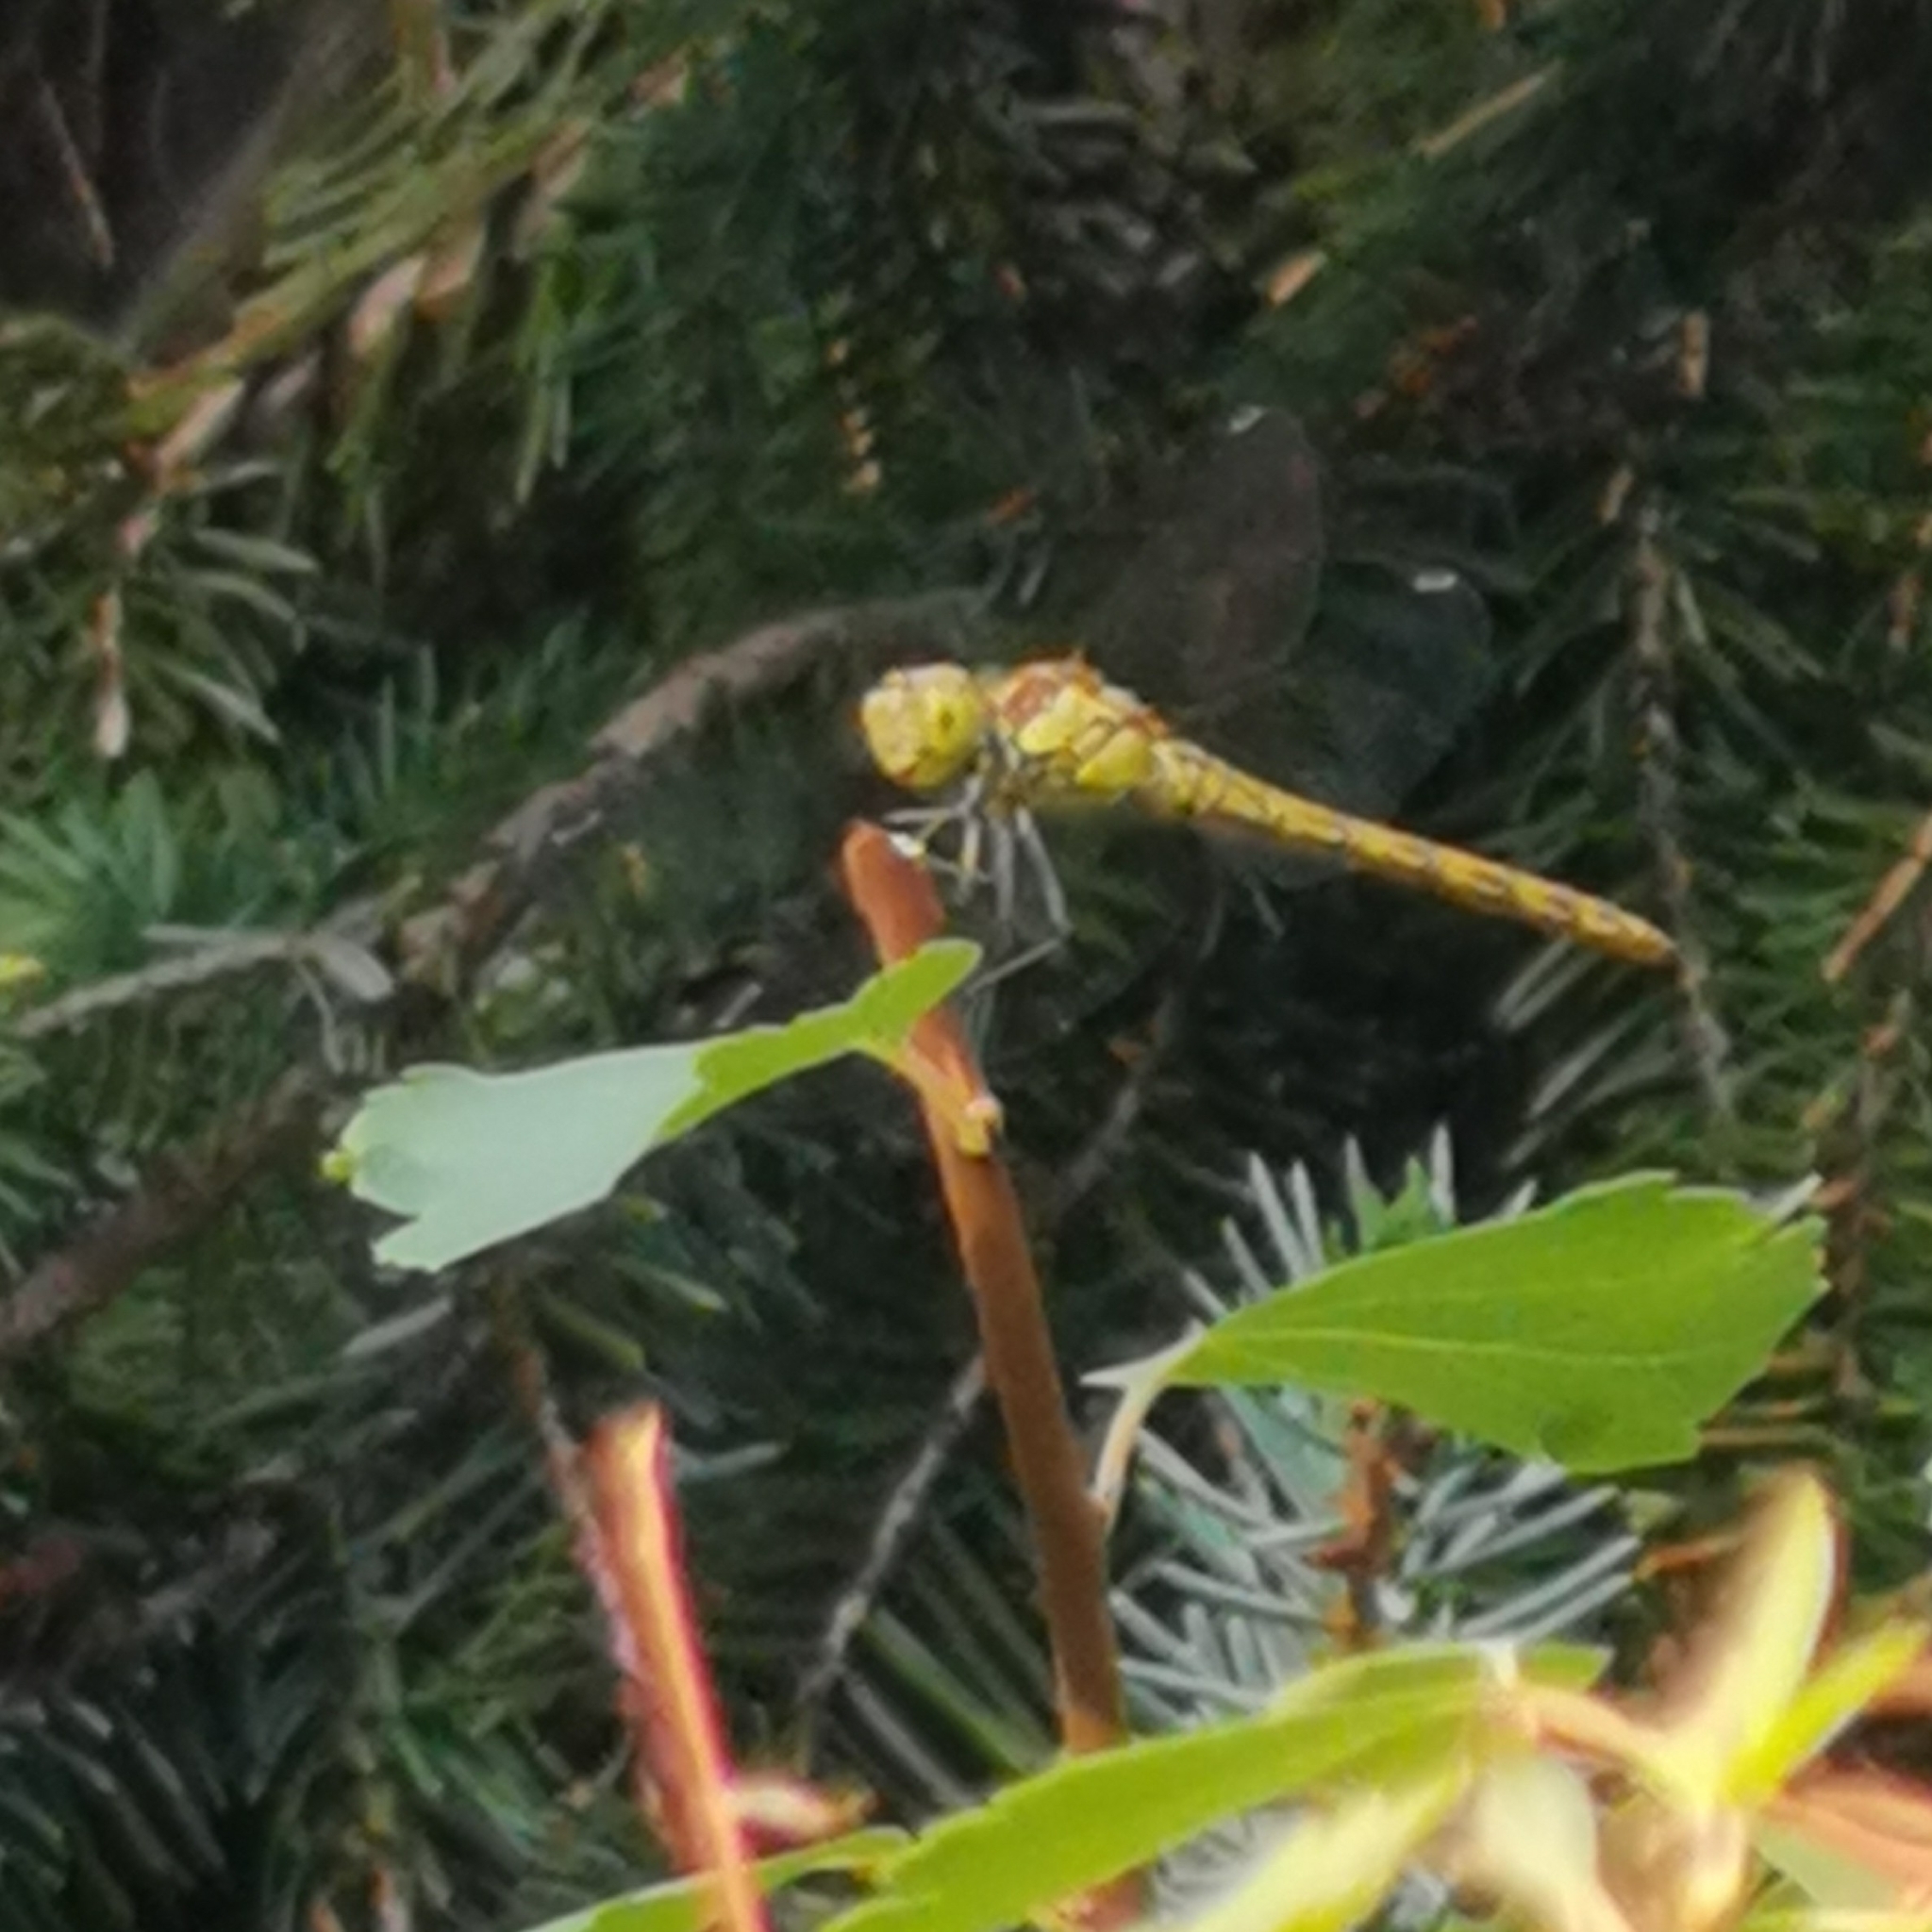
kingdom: Animalia
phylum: Arthropoda
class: Insecta
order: Odonata
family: Libellulidae
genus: Sympetrum
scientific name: Sympetrum striolatum
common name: Common darter
